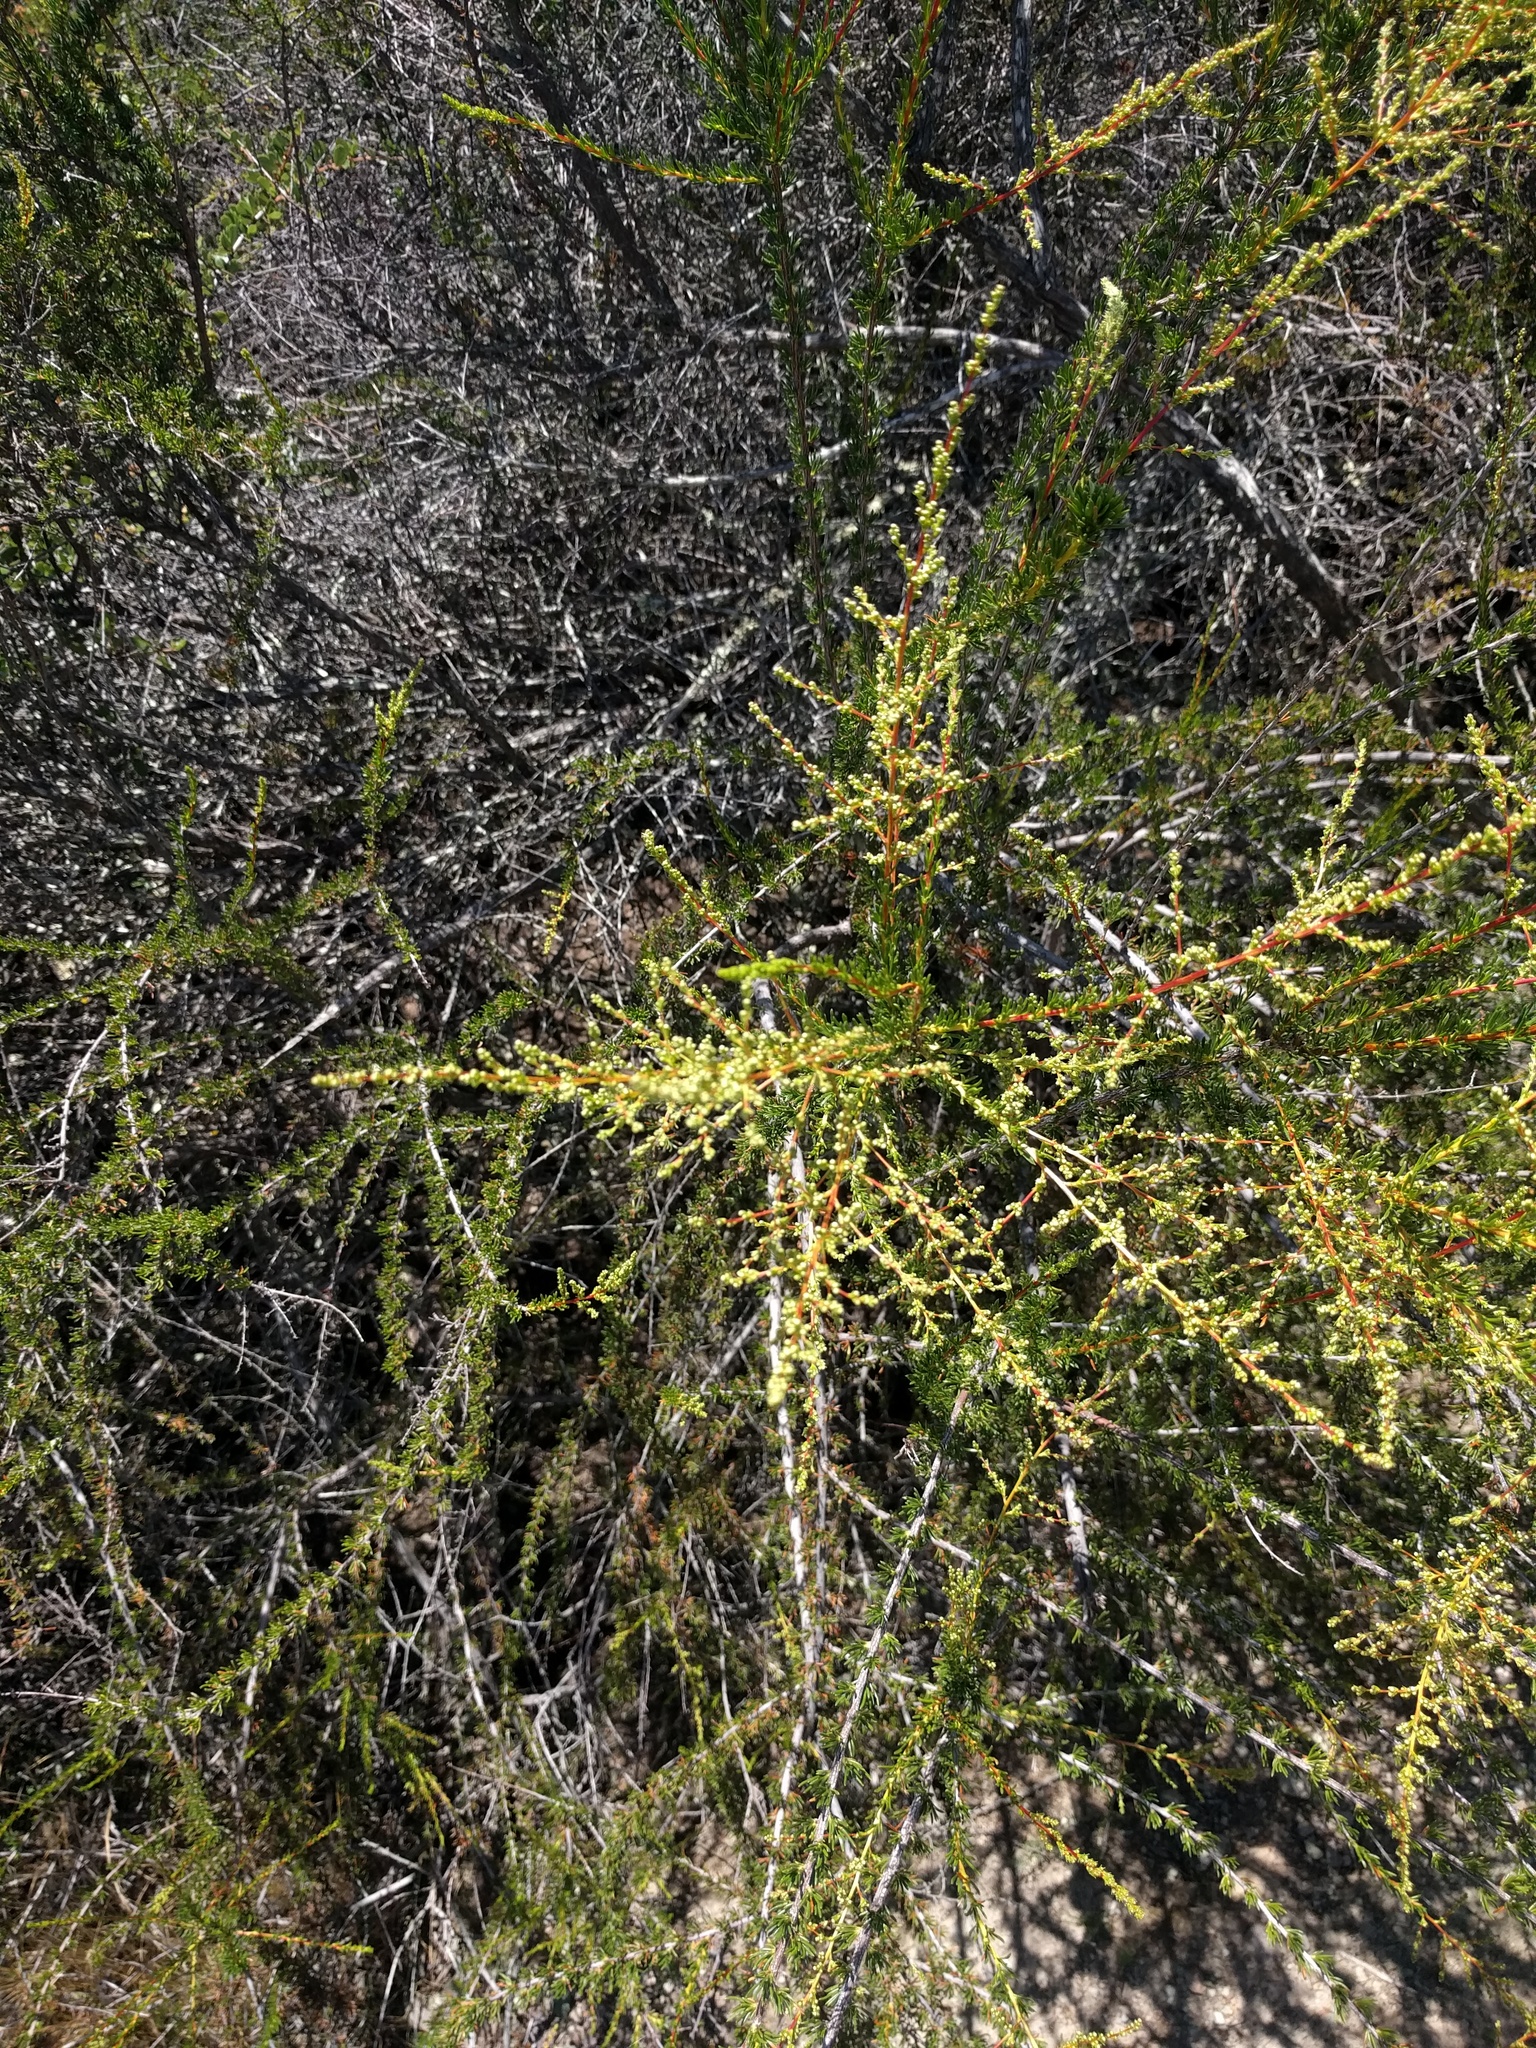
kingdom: Plantae
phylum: Tracheophyta
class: Magnoliopsida
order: Rosales
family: Rosaceae
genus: Adenostoma
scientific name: Adenostoma fasciculatum
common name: Chamise
